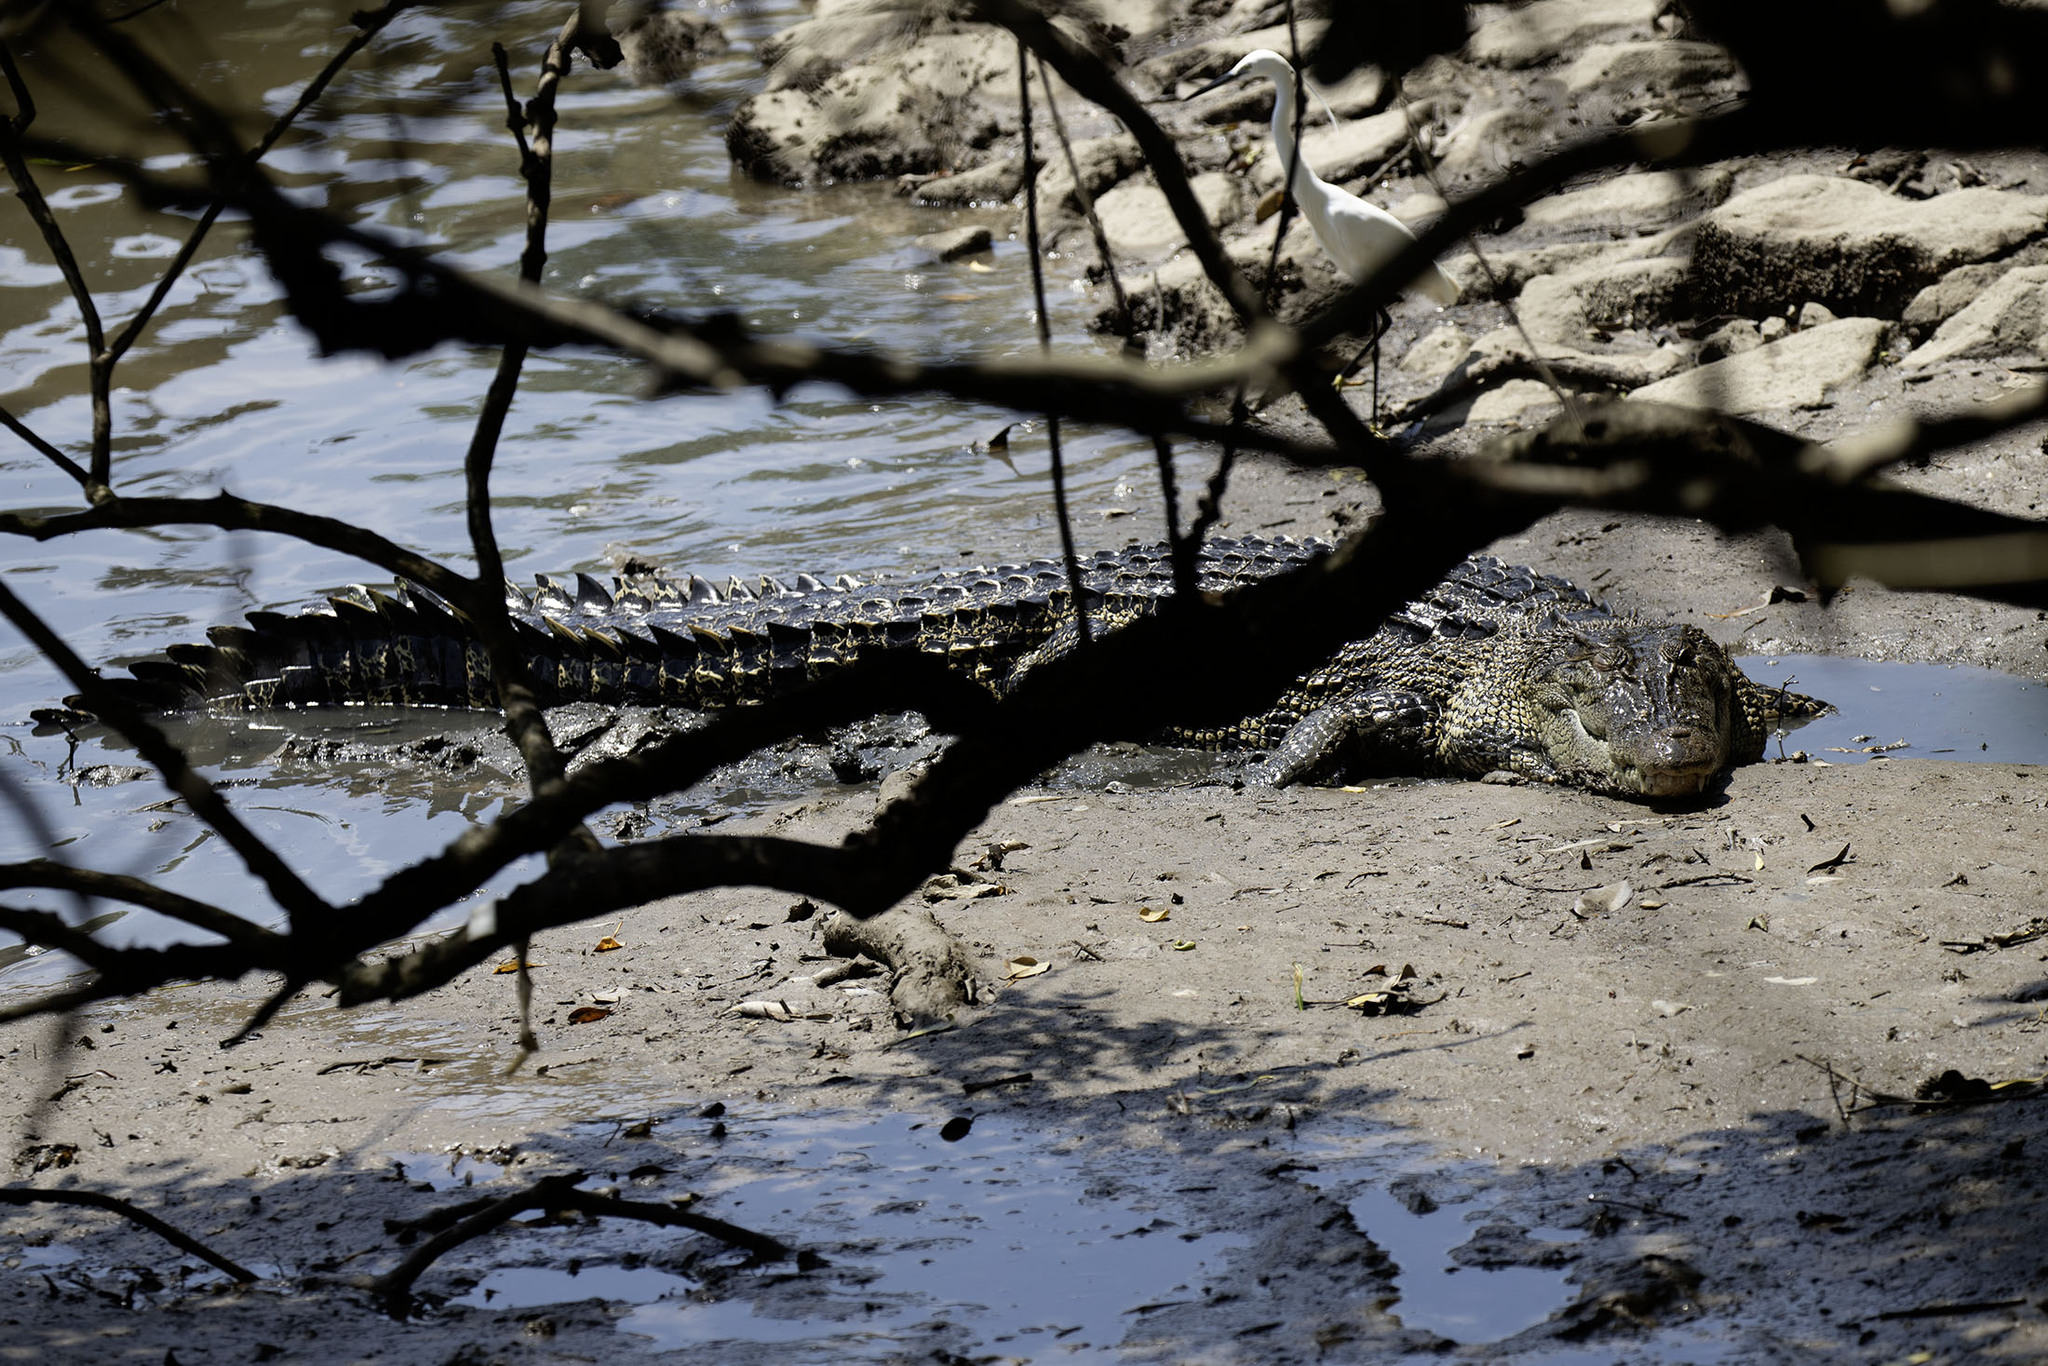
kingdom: Animalia
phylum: Chordata
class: Crocodylia
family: Crocodylidae
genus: Crocodylus
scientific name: Crocodylus porosus
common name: Saltwater crocodile
